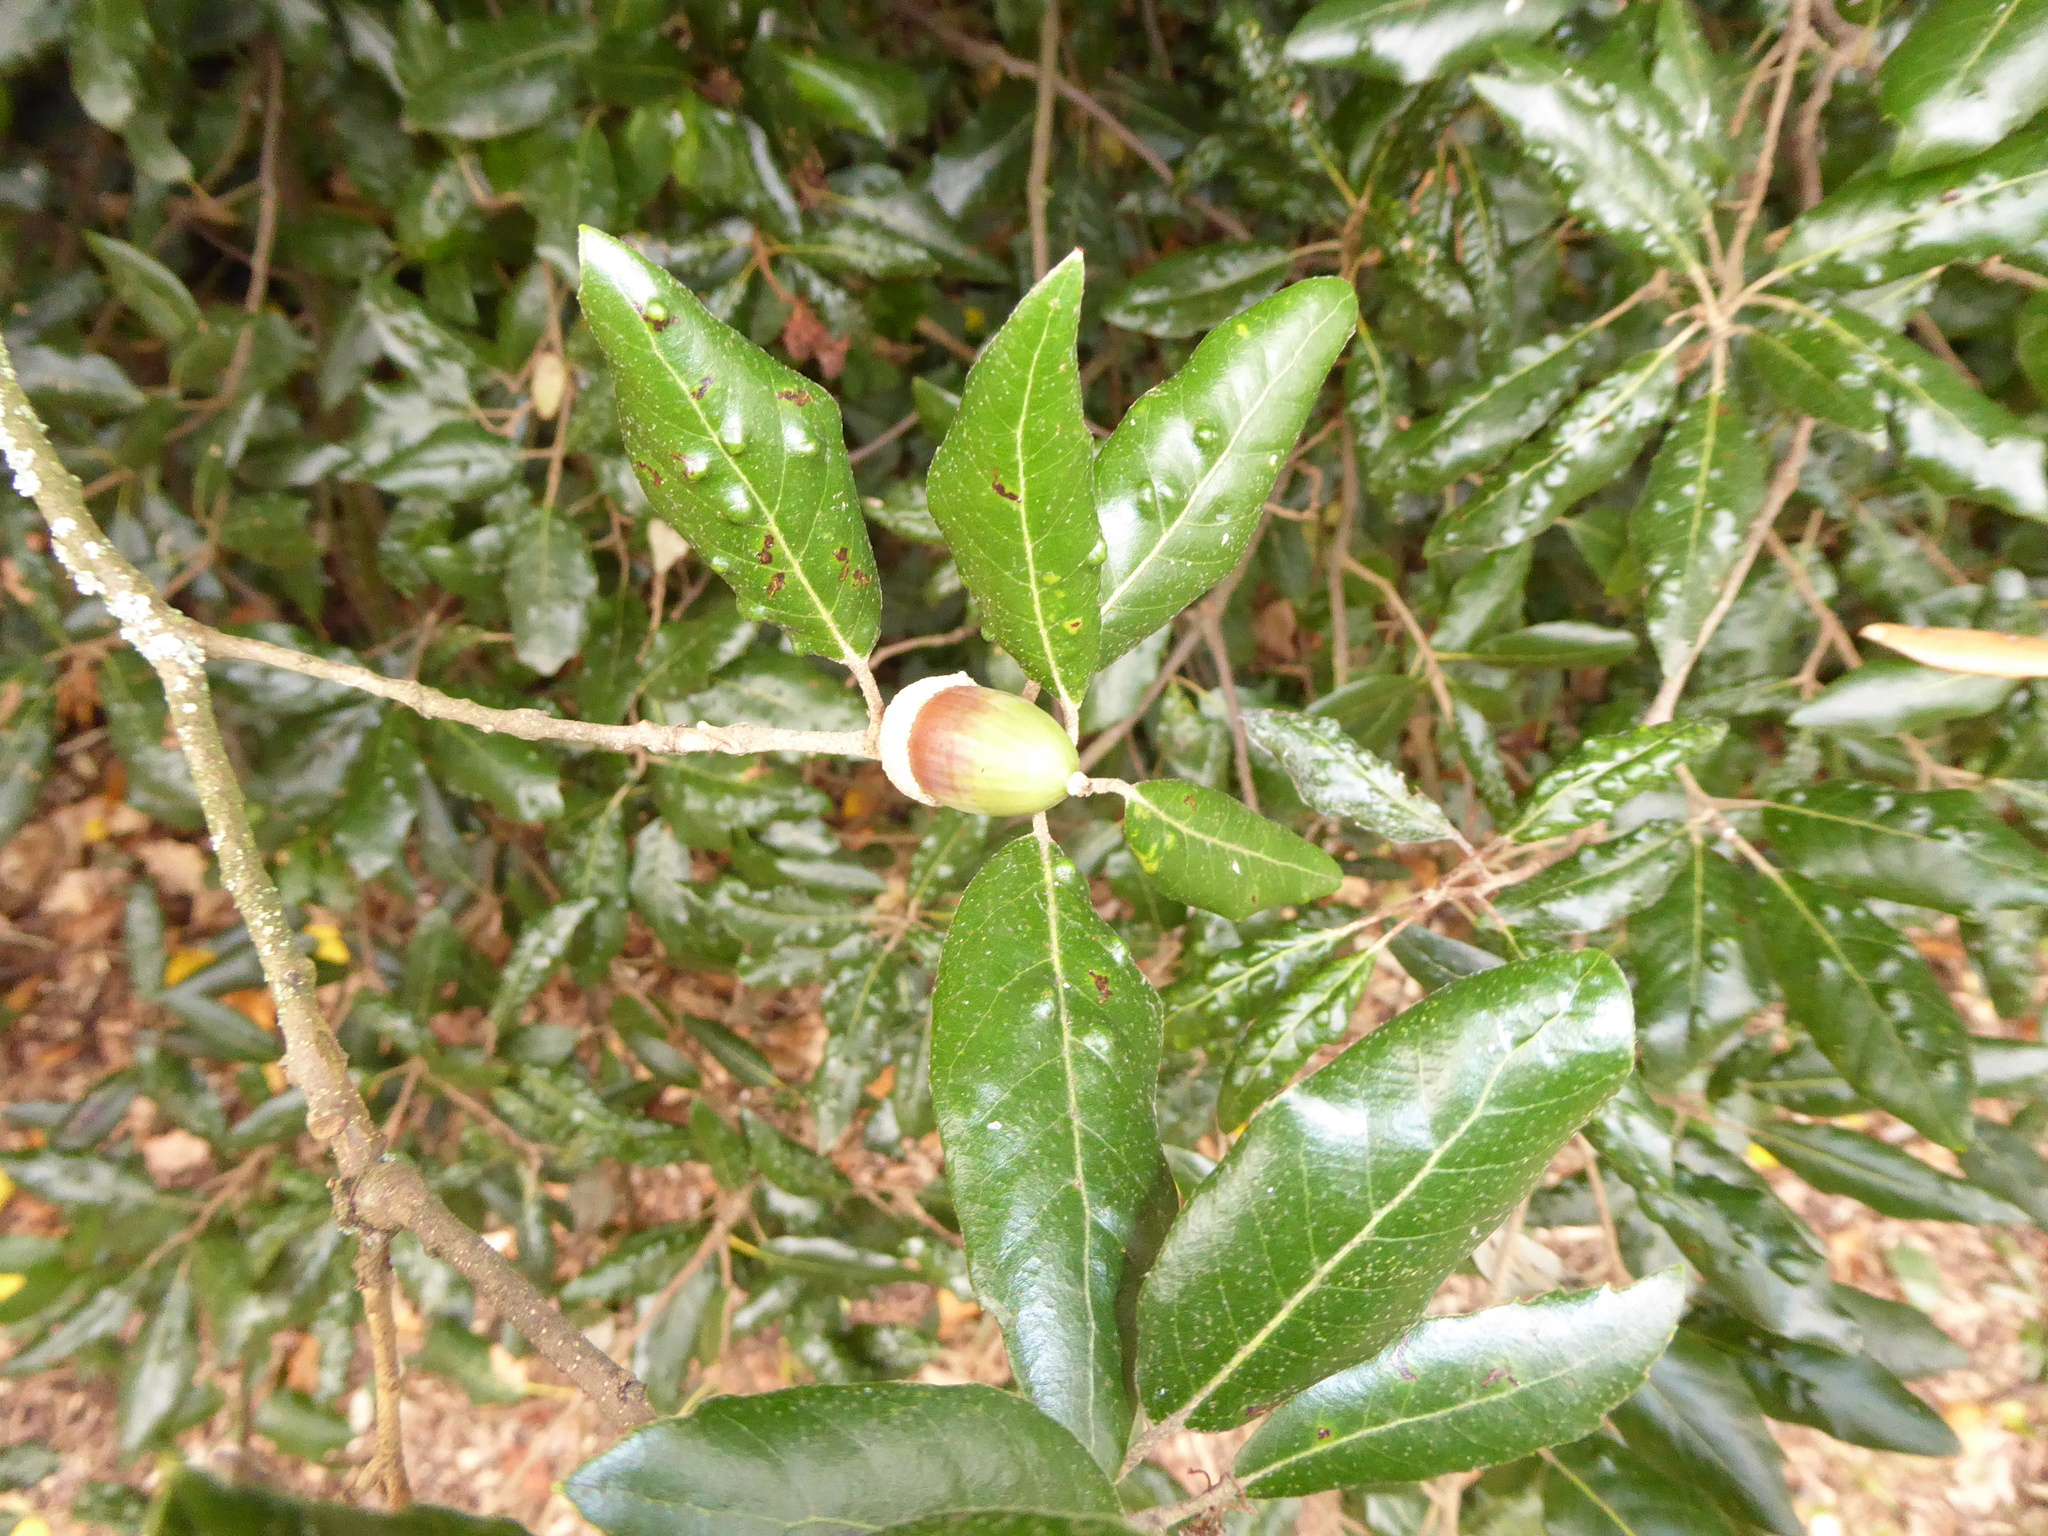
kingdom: Plantae
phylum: Tracheophyta
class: Magnoliopsida
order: Fagales
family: Fagaceae
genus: Quercus
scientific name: Quercus ilex
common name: Evergreen oak
